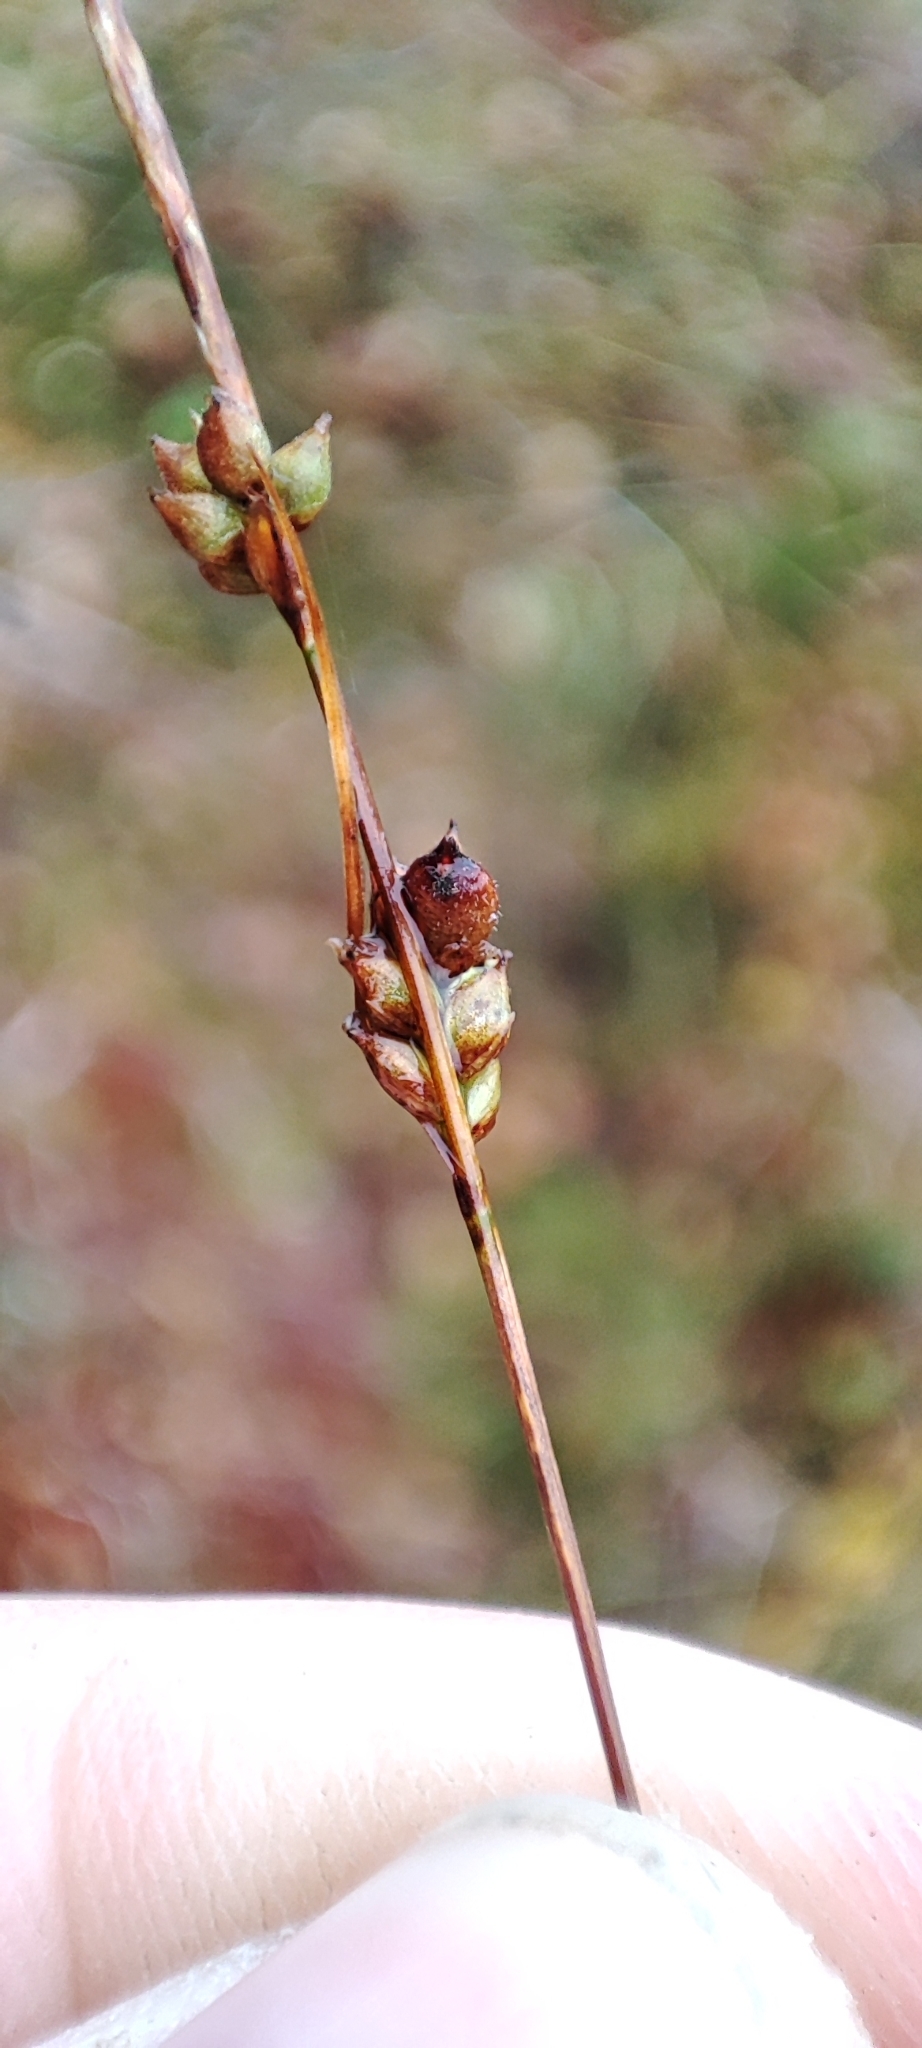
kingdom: Plantae
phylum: Tracheophyta
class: Liliopsida
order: Poales
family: Cyperaceae
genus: Carex
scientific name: Carex globularis
